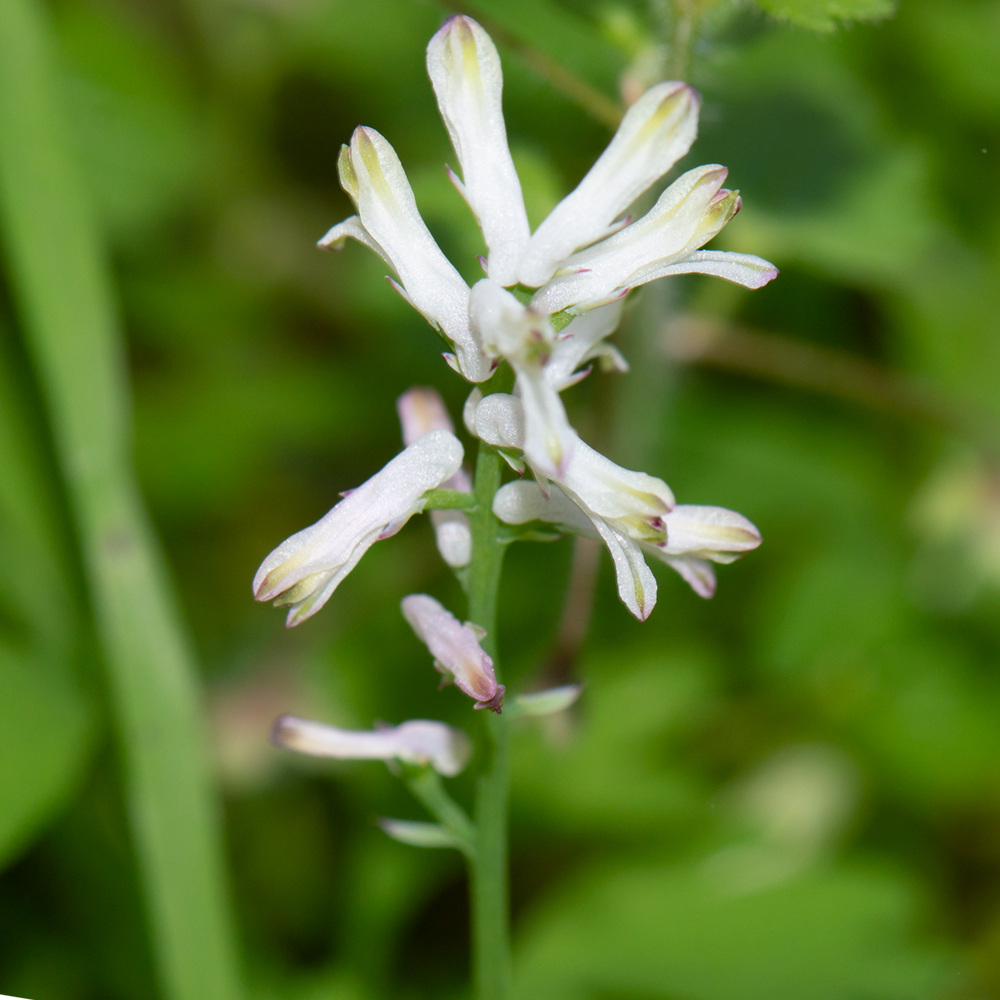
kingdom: Plantae
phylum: Tracheophyta
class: Magnoliopsida
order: Ranunculales
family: Papaveraceae
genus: Fumaria
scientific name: Fumaria macrocarpa
